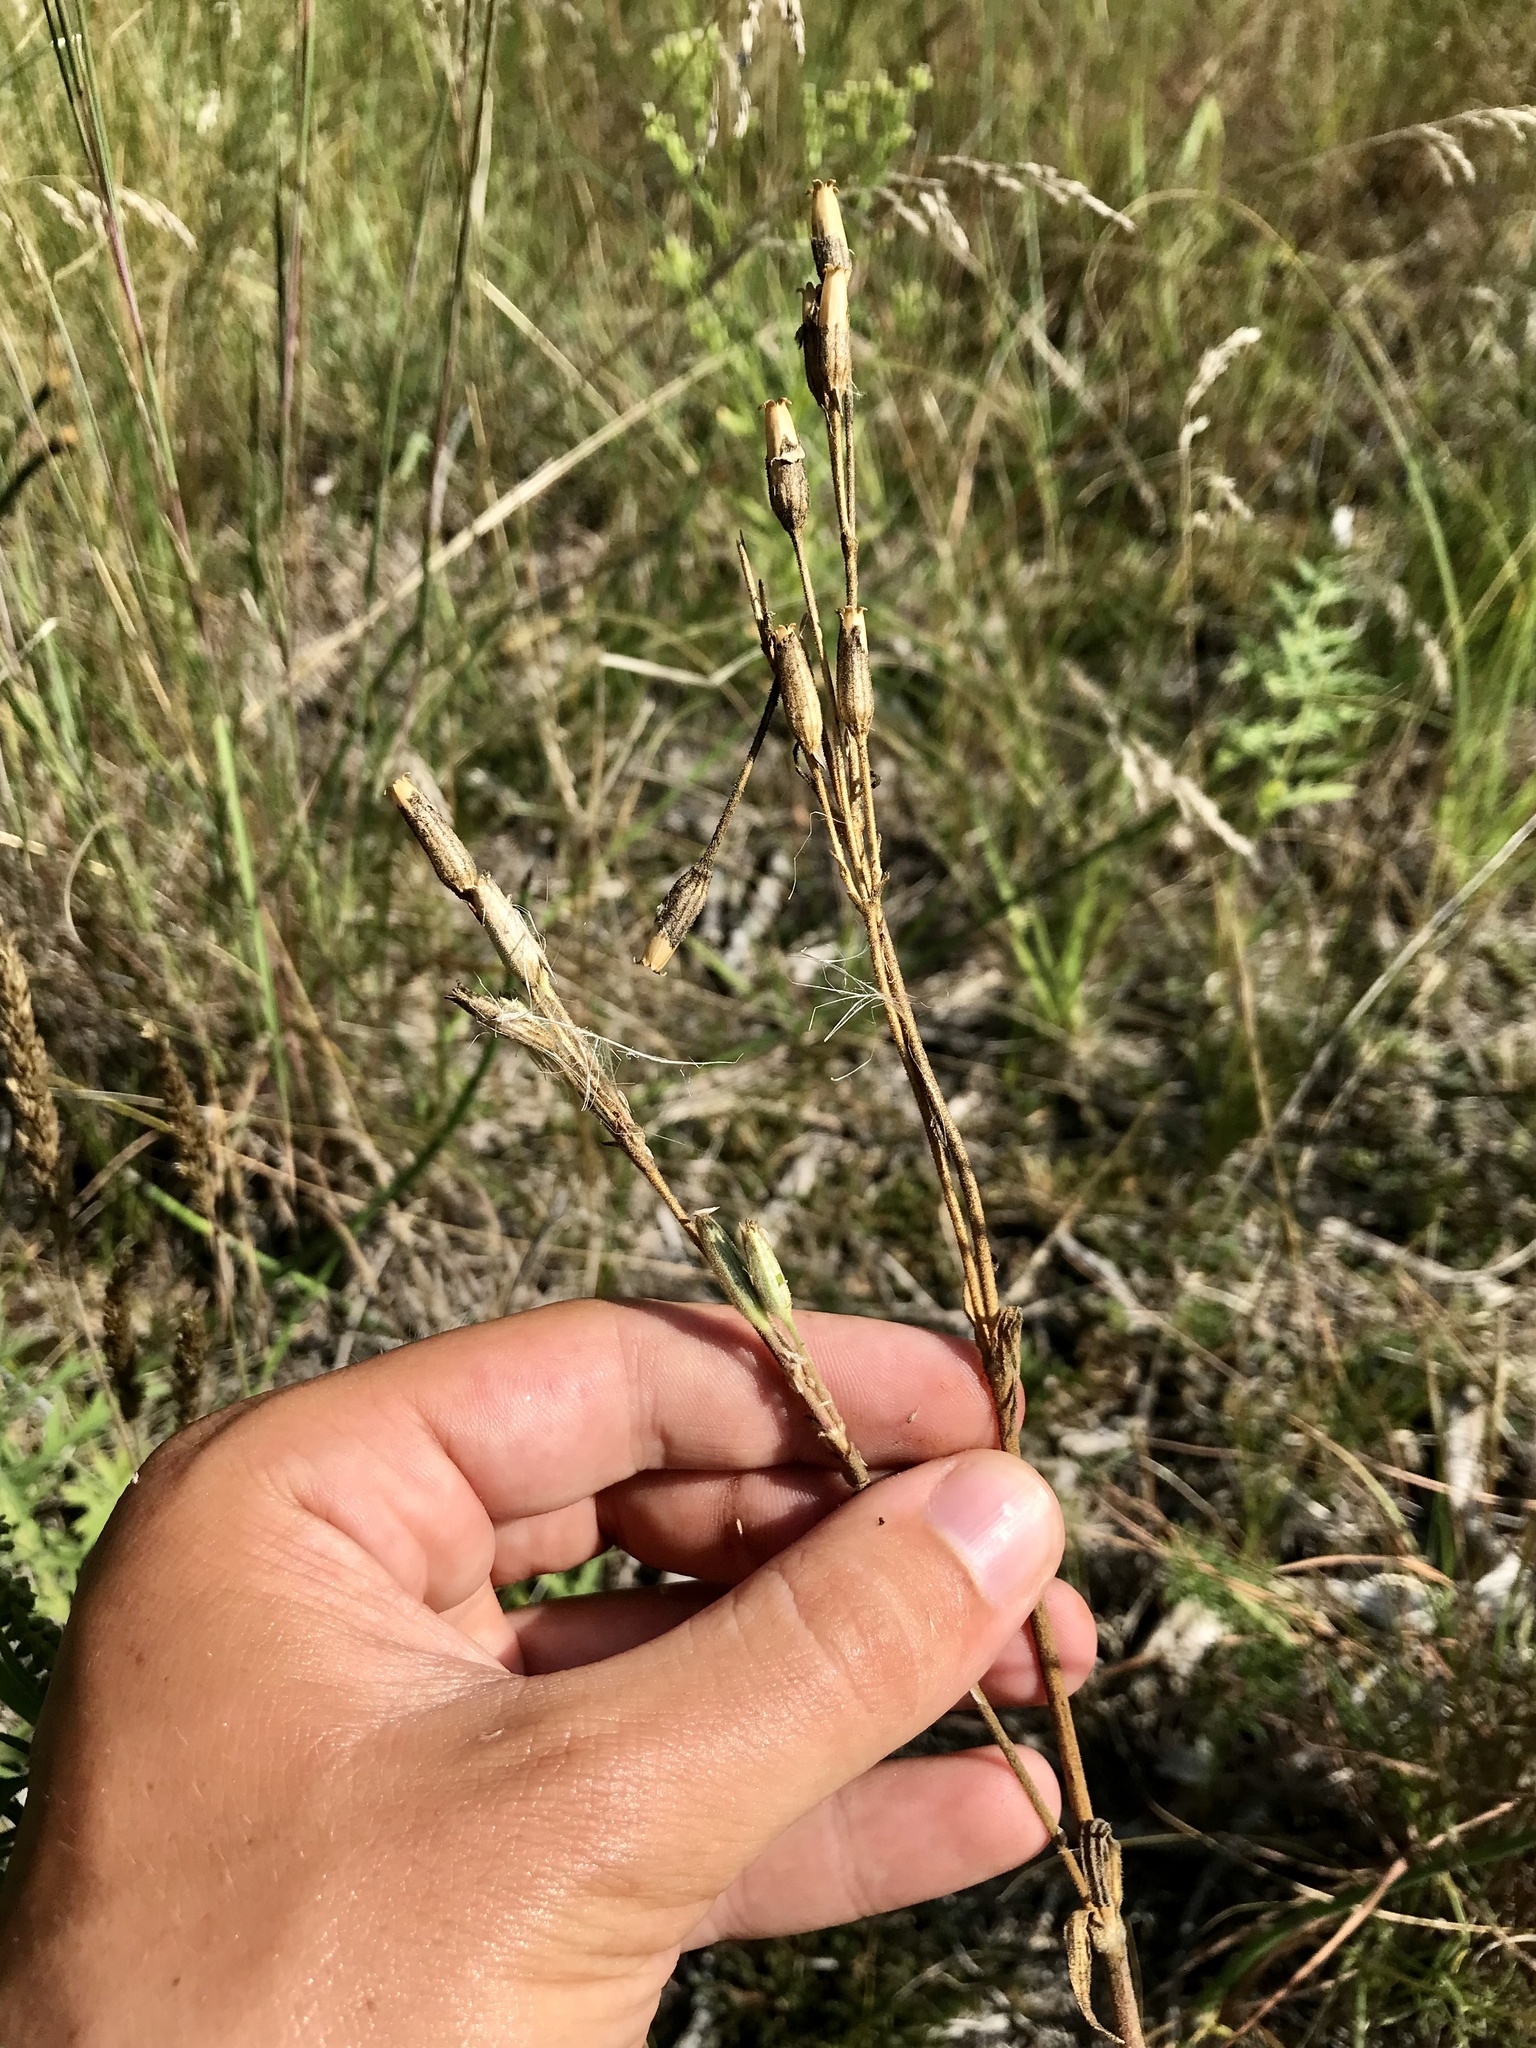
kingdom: Plantae
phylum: Tracheophyta
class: Magnoliopsida
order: Caryophyllales
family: Caryophyllaceae
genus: Silene
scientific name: Silene drummondii
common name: Drummond's catchfly
